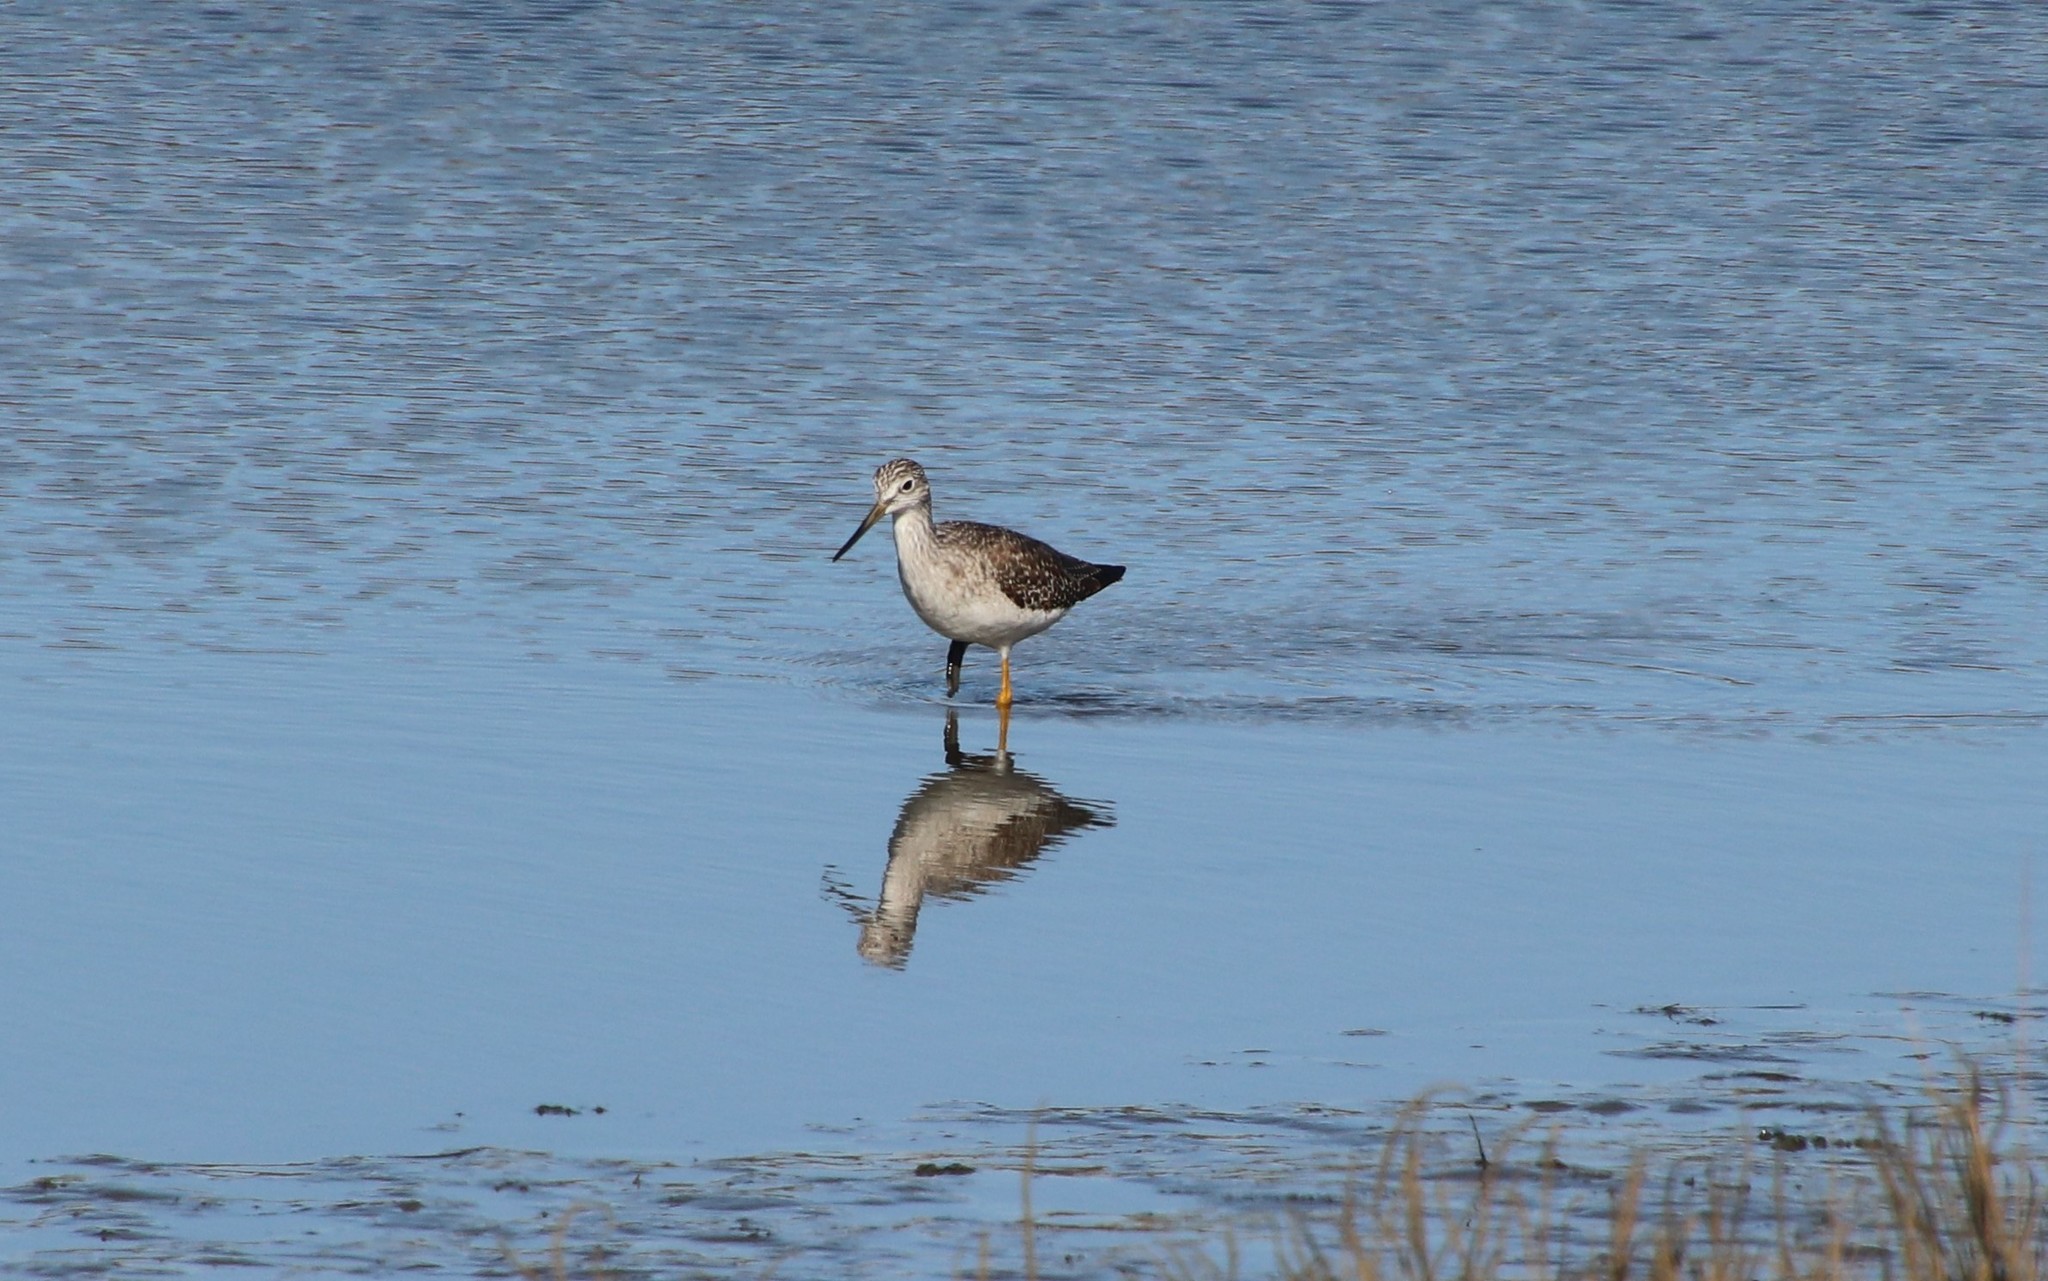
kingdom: Animalia
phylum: Chordata
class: Aves
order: Charadriiformes
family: Scolopacidae
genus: Tringa
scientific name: Tringa melanoleuca
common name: Greater yellowlegs
